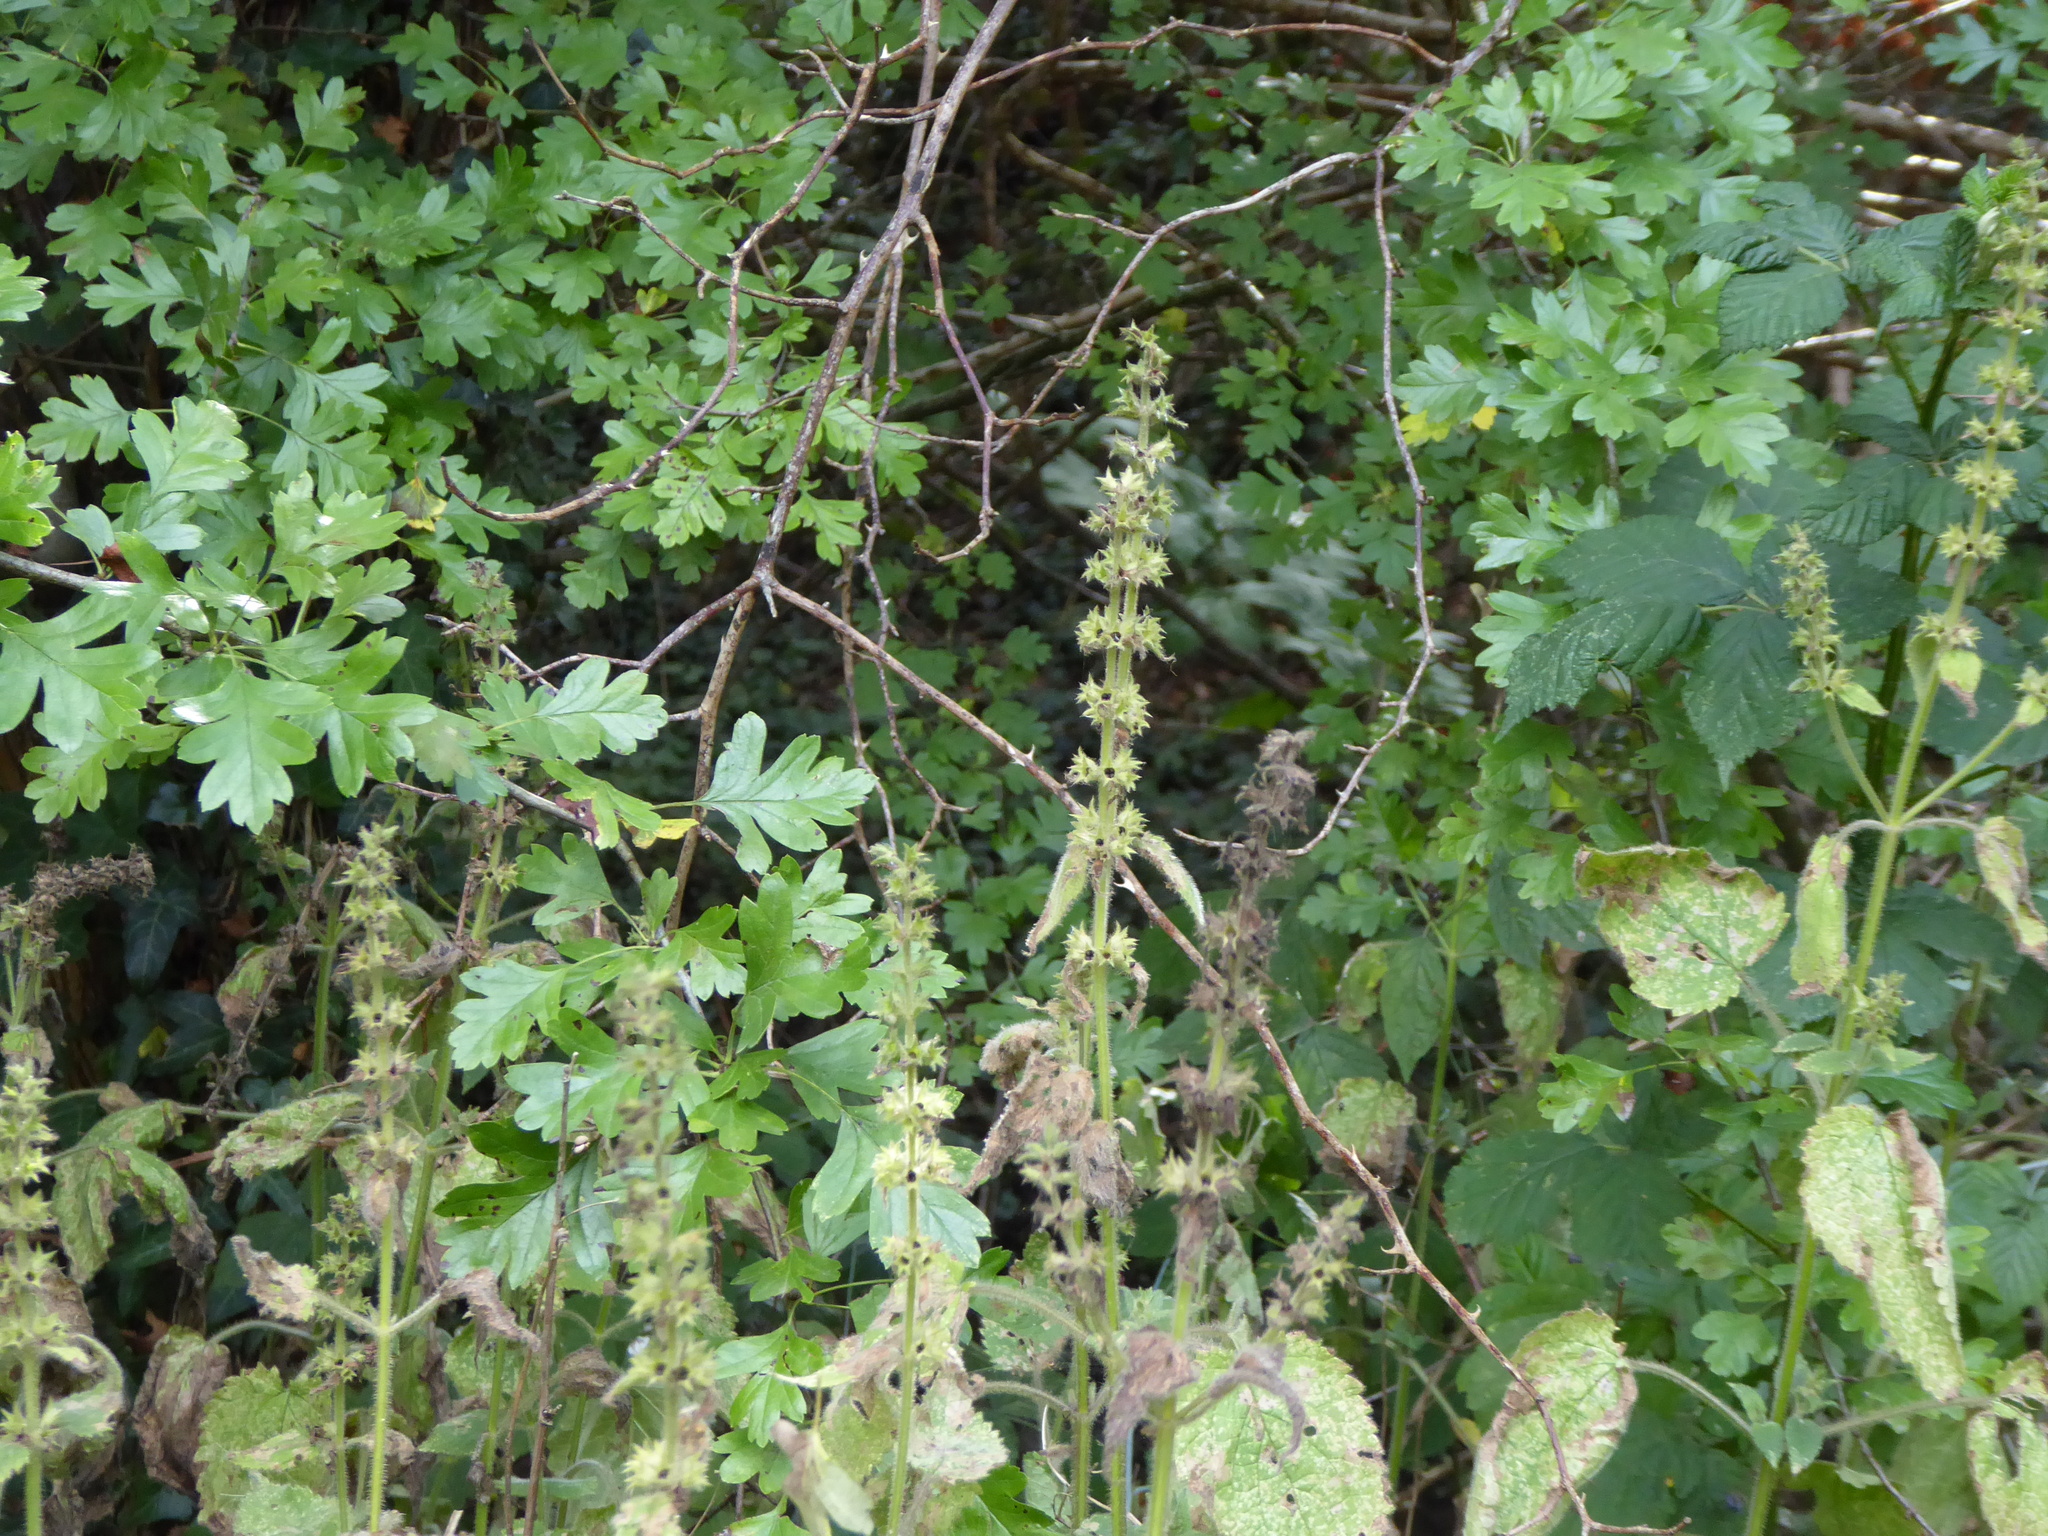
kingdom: Plantae
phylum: Tracheophyta
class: Magnoliopsida
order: Lamiales
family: Lamiaceae
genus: Stachys
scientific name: Stachys sylvatica
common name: Hedge woundwort
